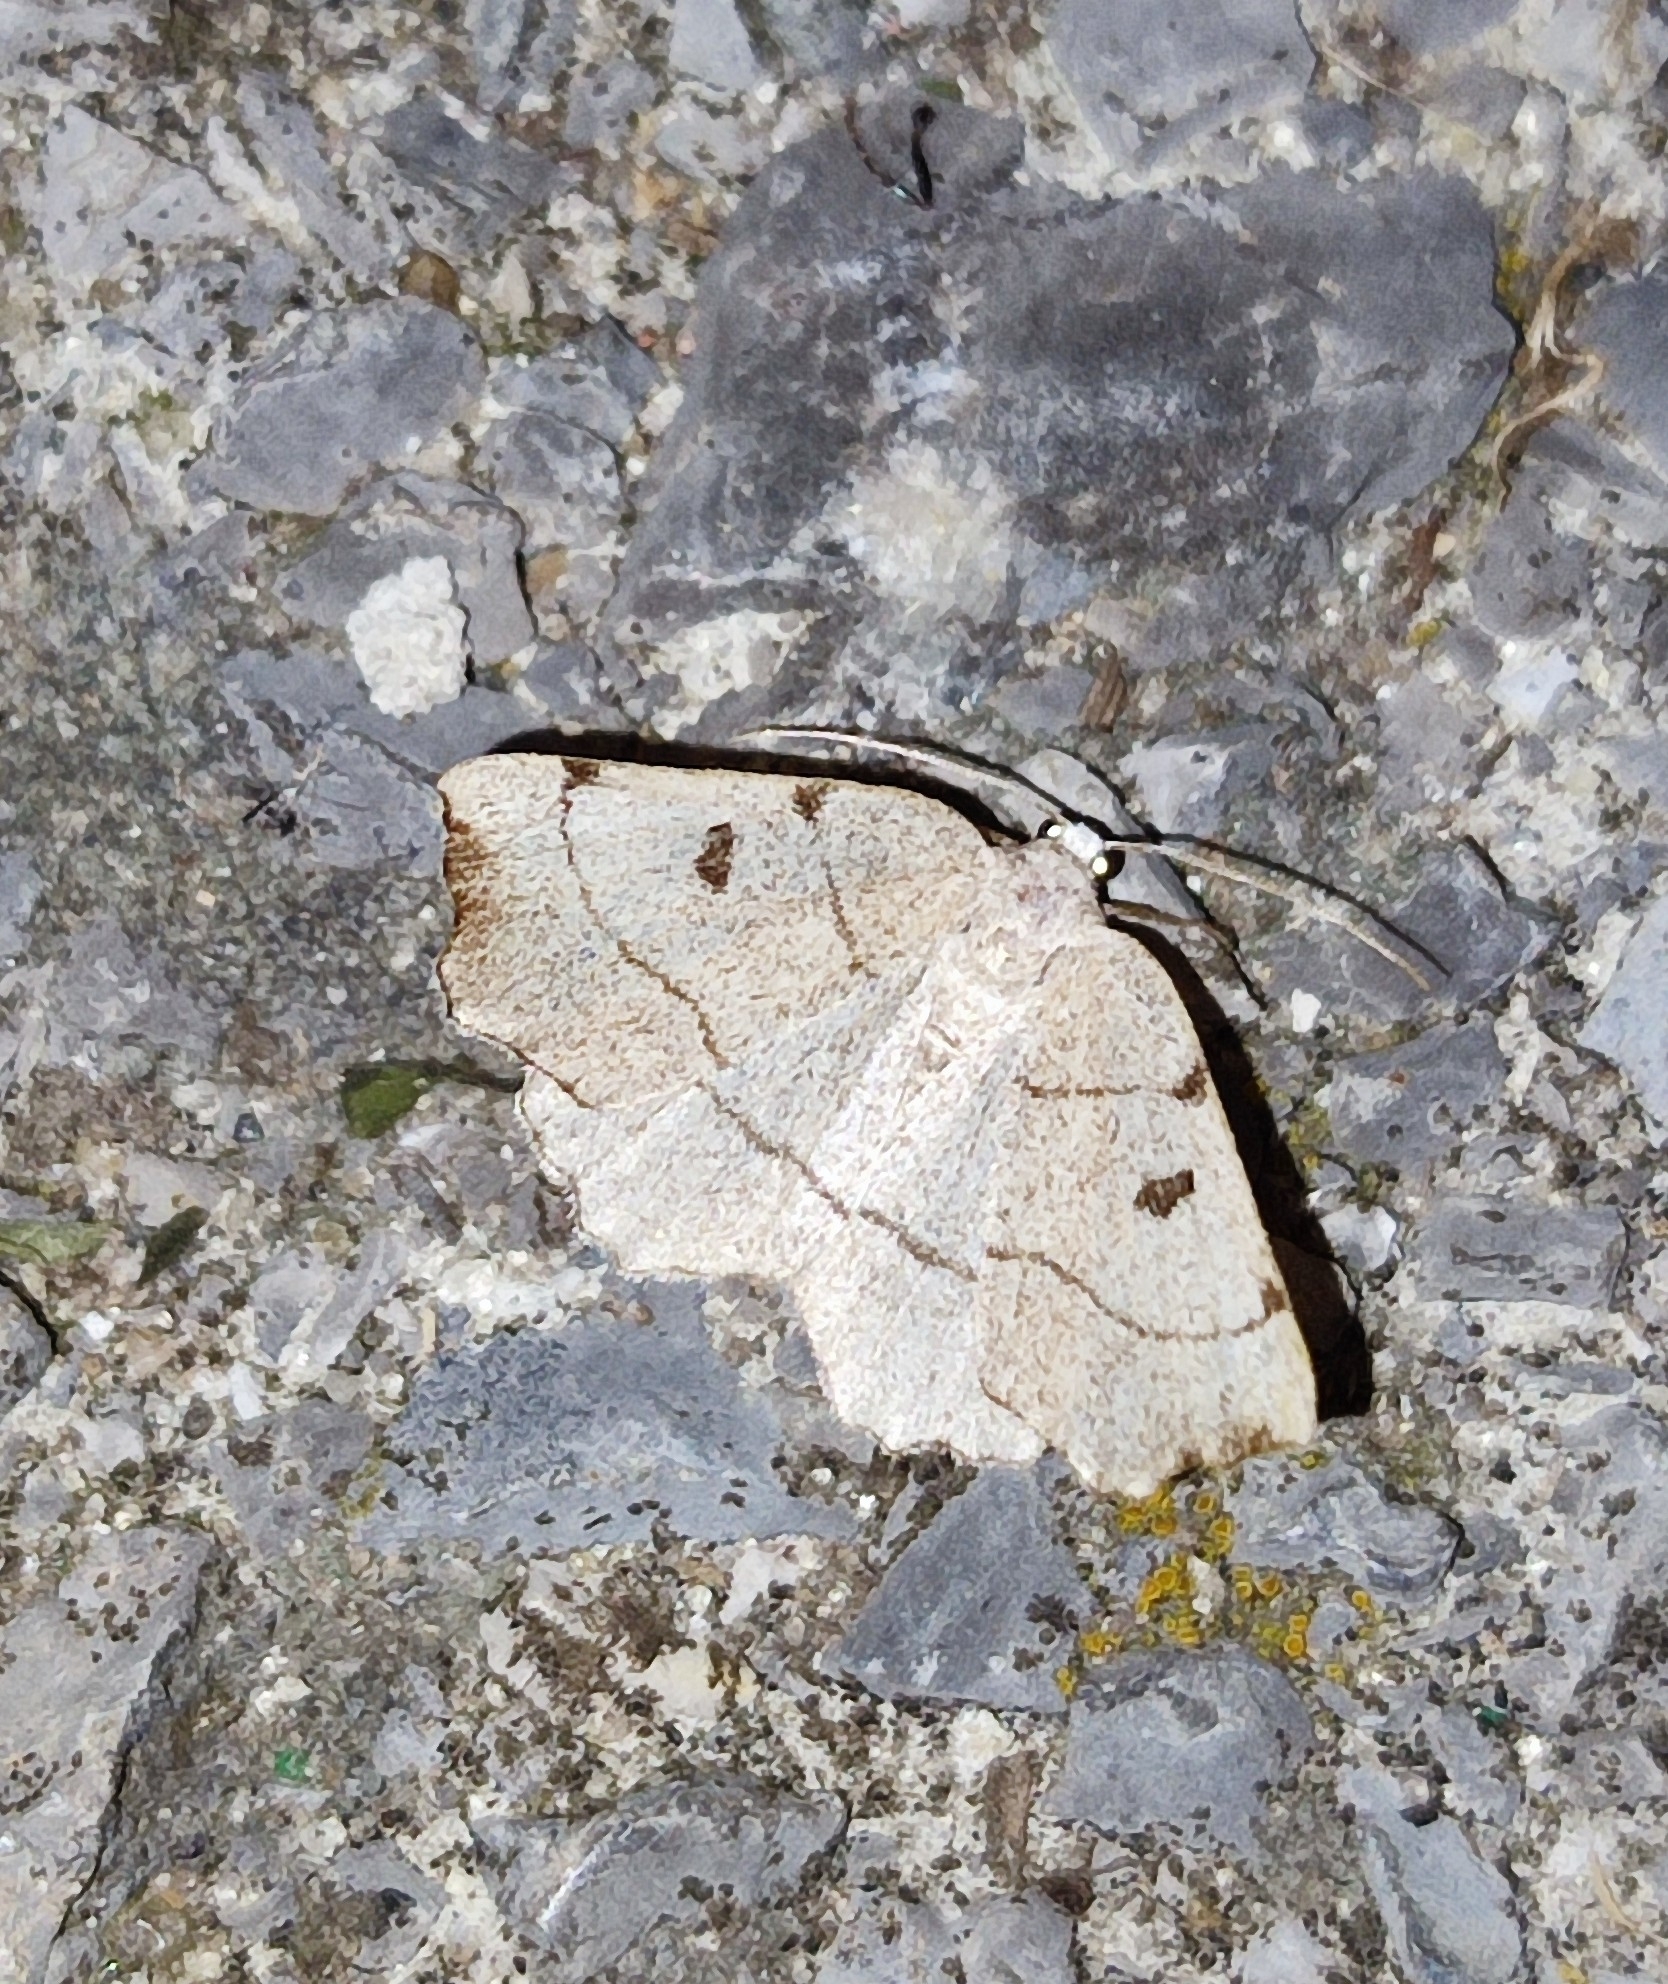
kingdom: Animalia
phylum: Arthropoda
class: Insecta
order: Lepidoptera
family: Geometridae
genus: Eilicrinia
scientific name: Eilicrinia trinotata
